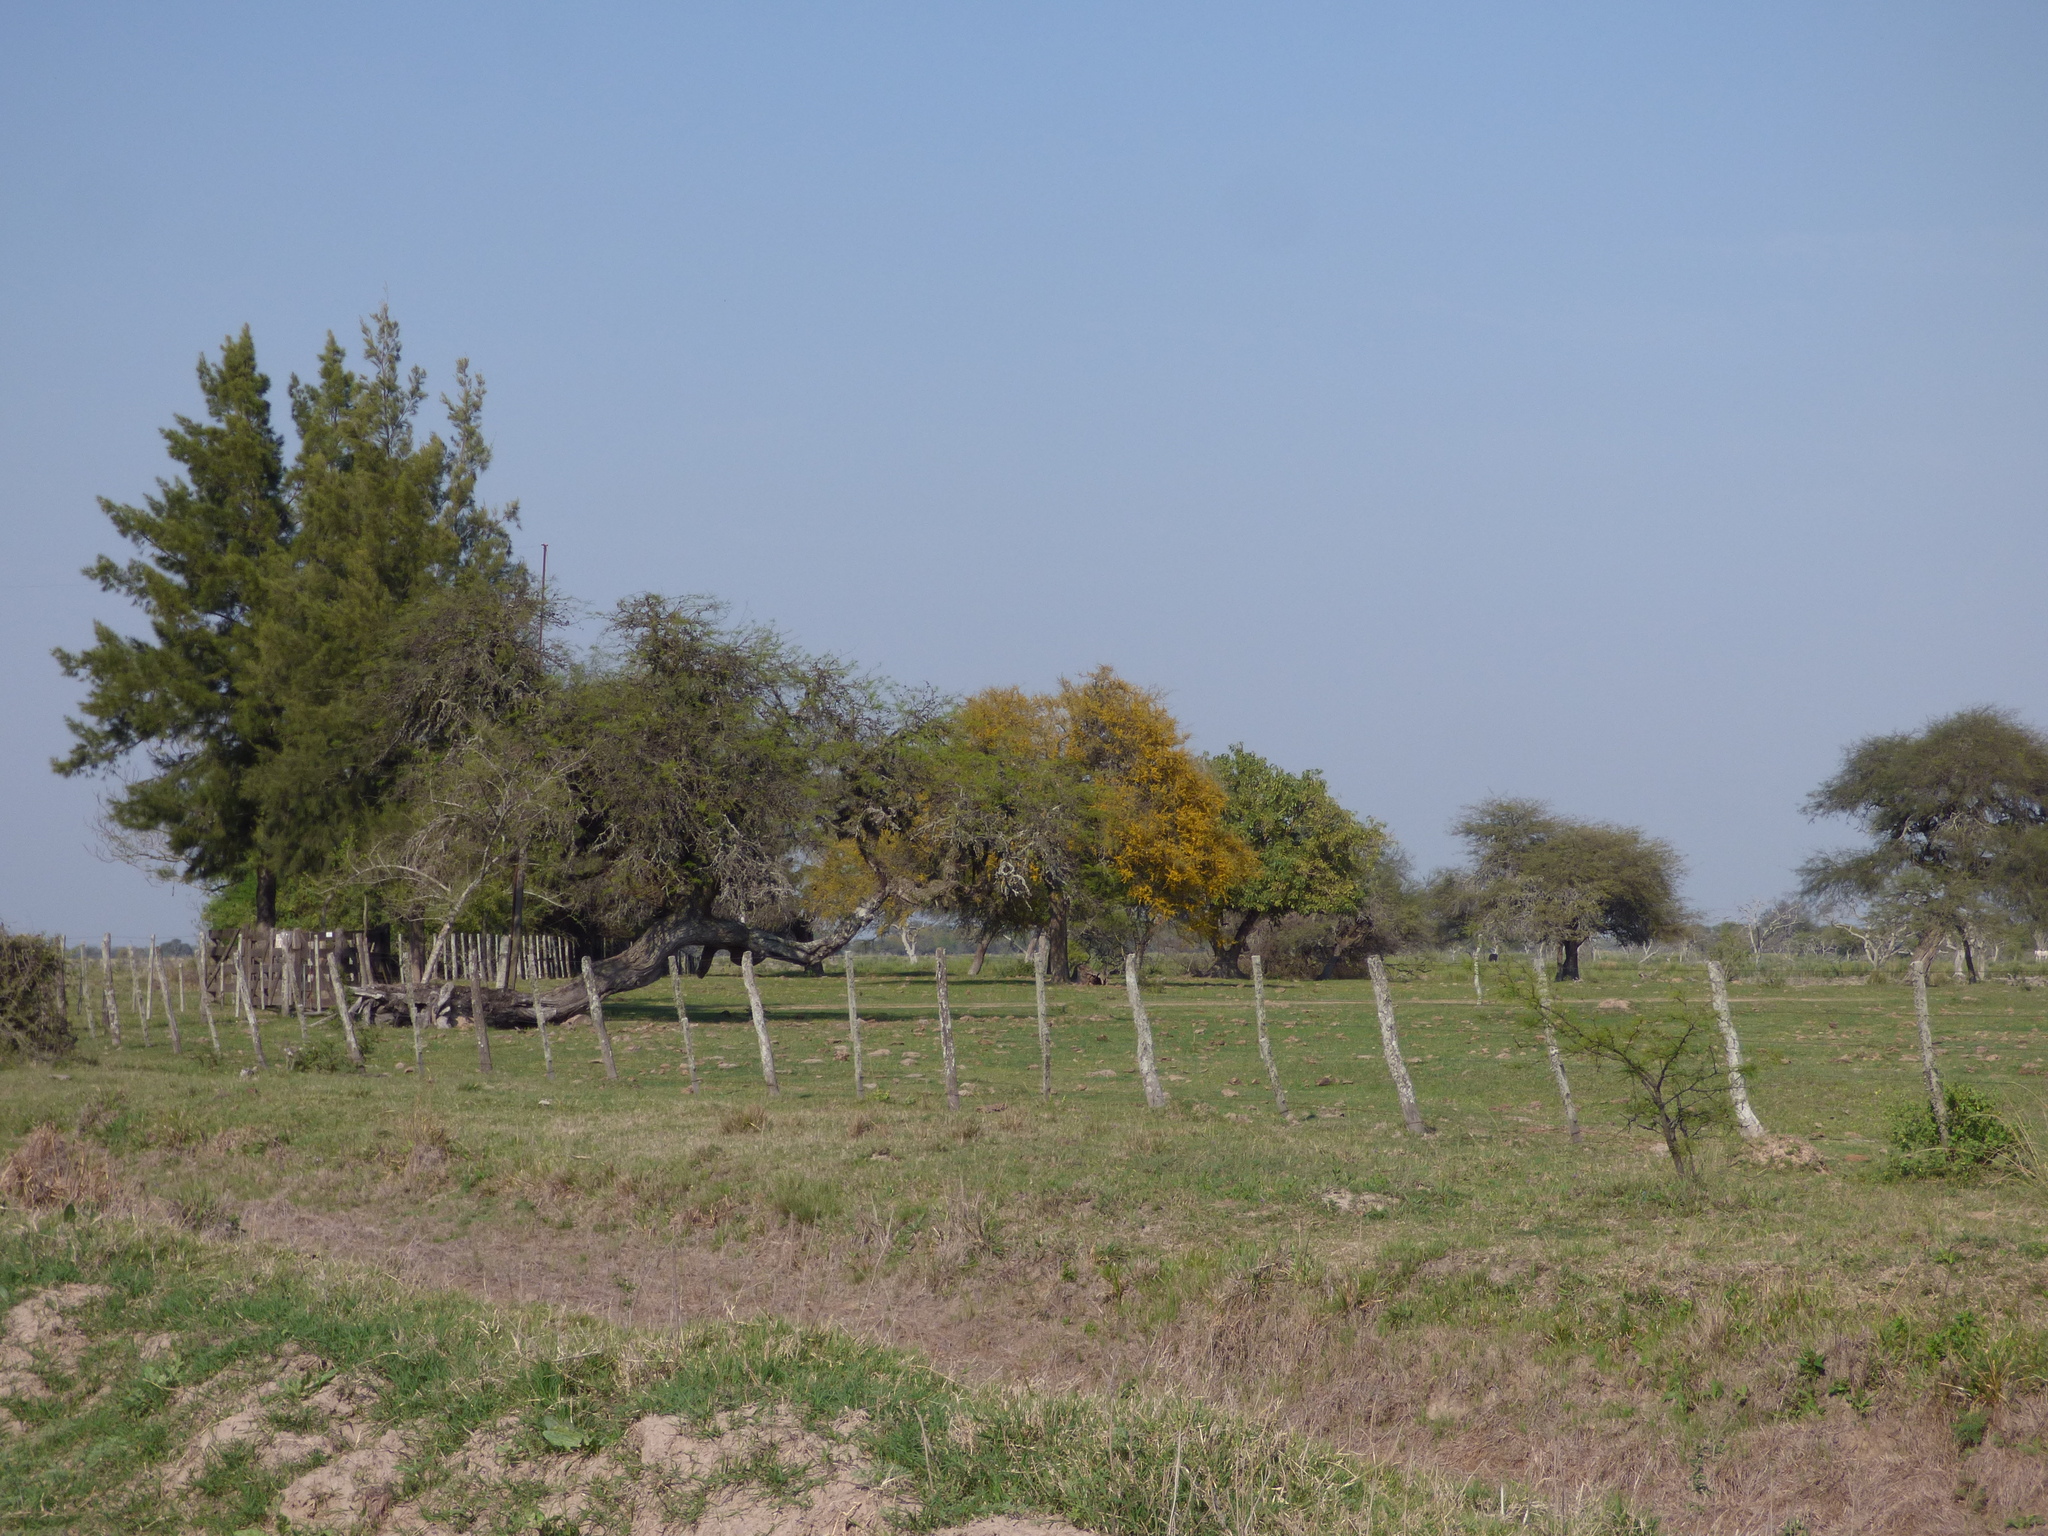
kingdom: Plantae
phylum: Tracheophyta
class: Magnoliopsida
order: Fabales
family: Fabaceae
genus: Geoffroea
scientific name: Geoffroea decorticans
